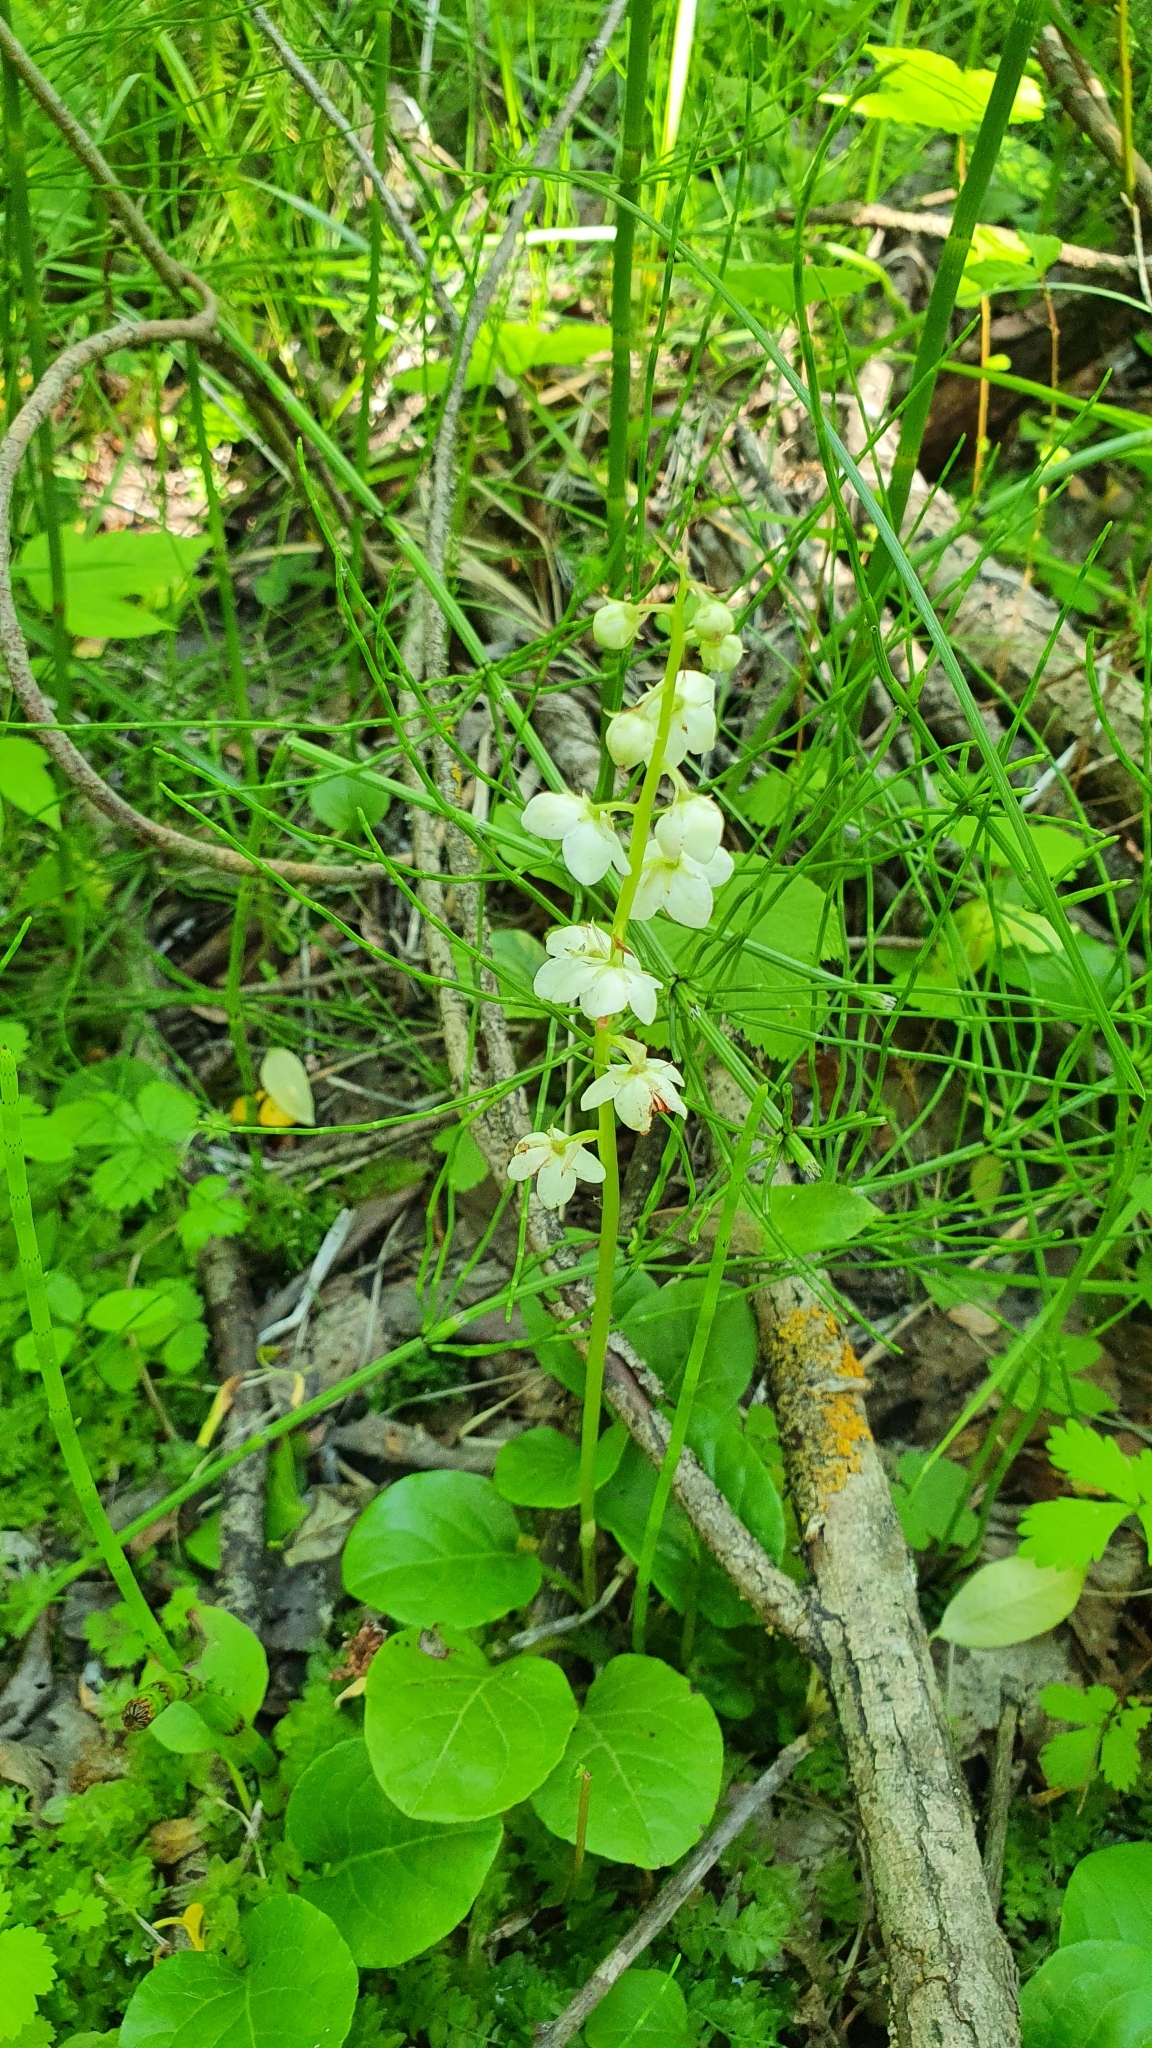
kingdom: Plantae
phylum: Tracheophyta
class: Magnoliopsida
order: Ericales
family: Ericaceae
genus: Pyrola
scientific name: Pyrola rotundifolia
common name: Round-leaved wintergreen
